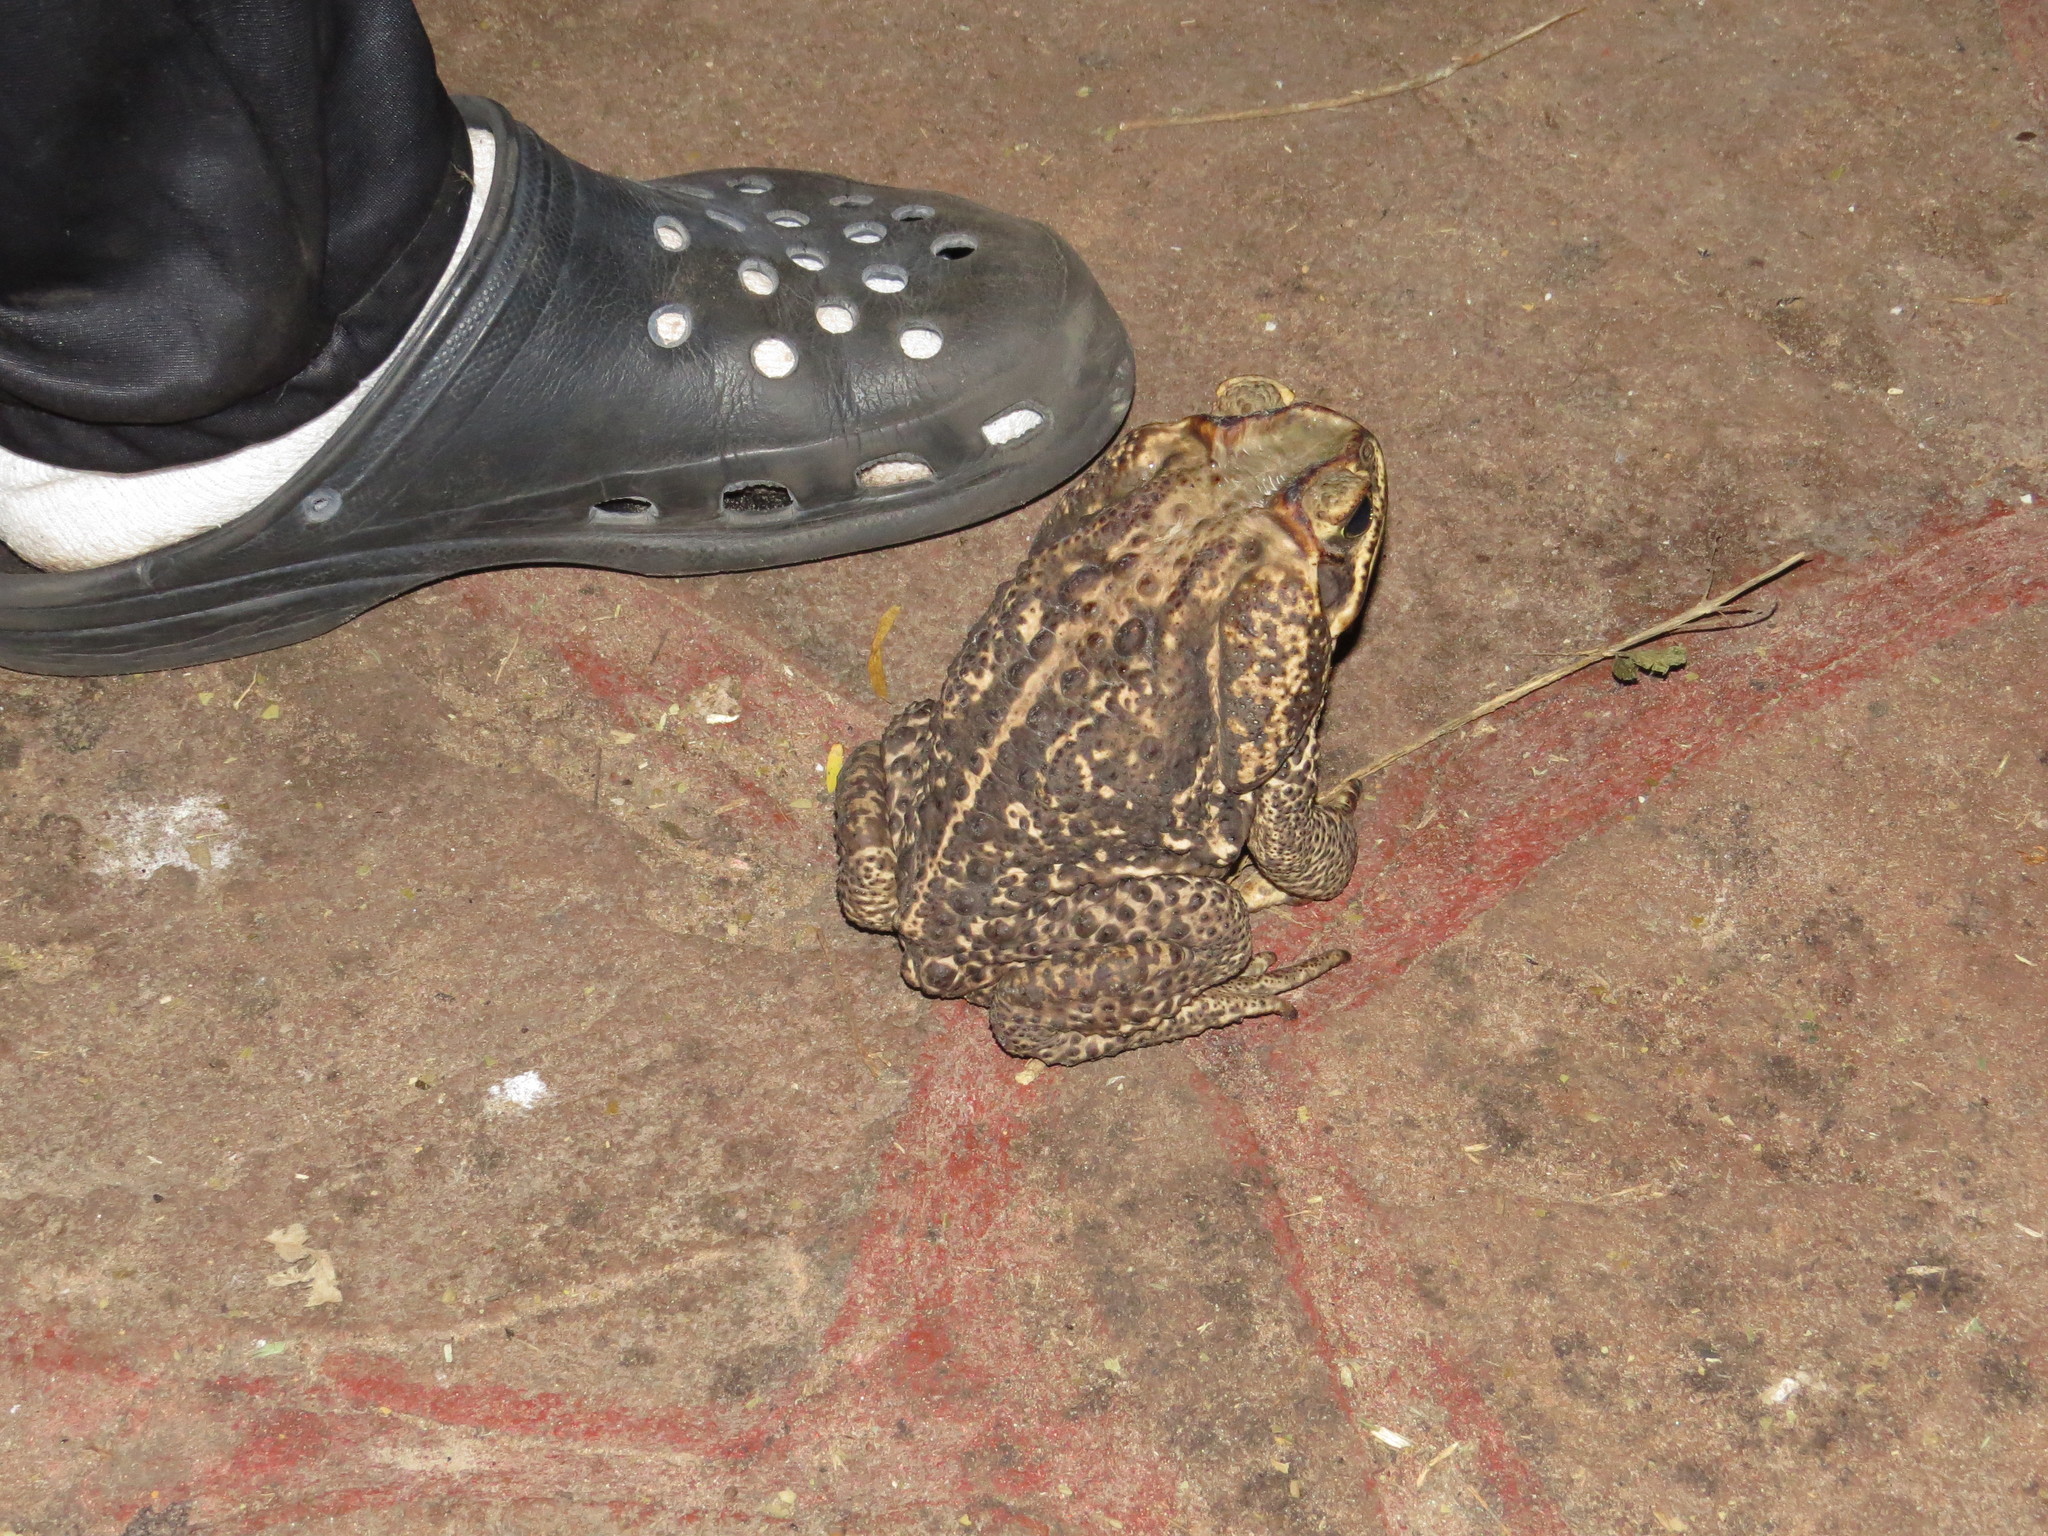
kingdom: Animalia
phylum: Chordata
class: Amphibia
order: Anura
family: Bufonidae
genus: Rhinella
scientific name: Rhinella diptycha
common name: Cope's toad
